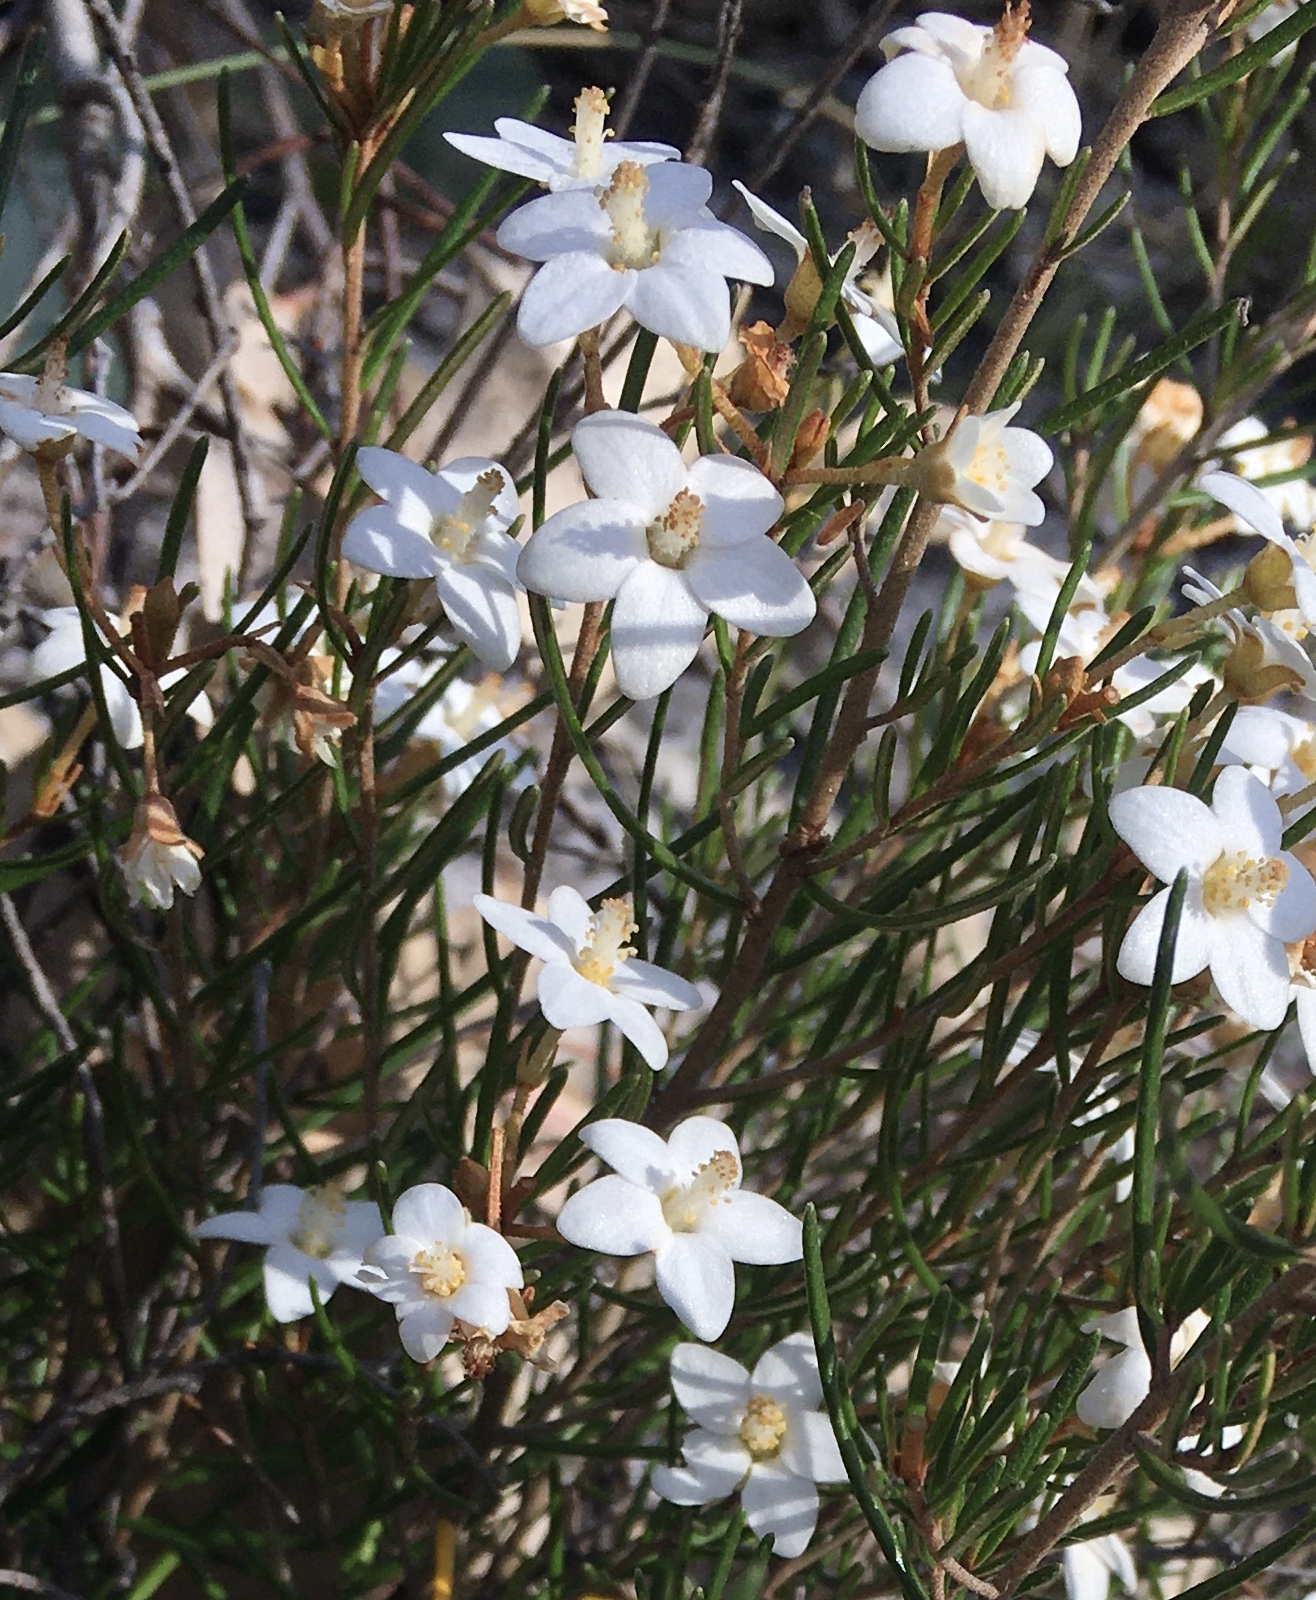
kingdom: Plantae
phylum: Tracheophyta
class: Magnoliopsida
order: Malpighiales
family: Euphorbiaceae
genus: Ricinocarpos
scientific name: Ricinocarpos linearifolius
